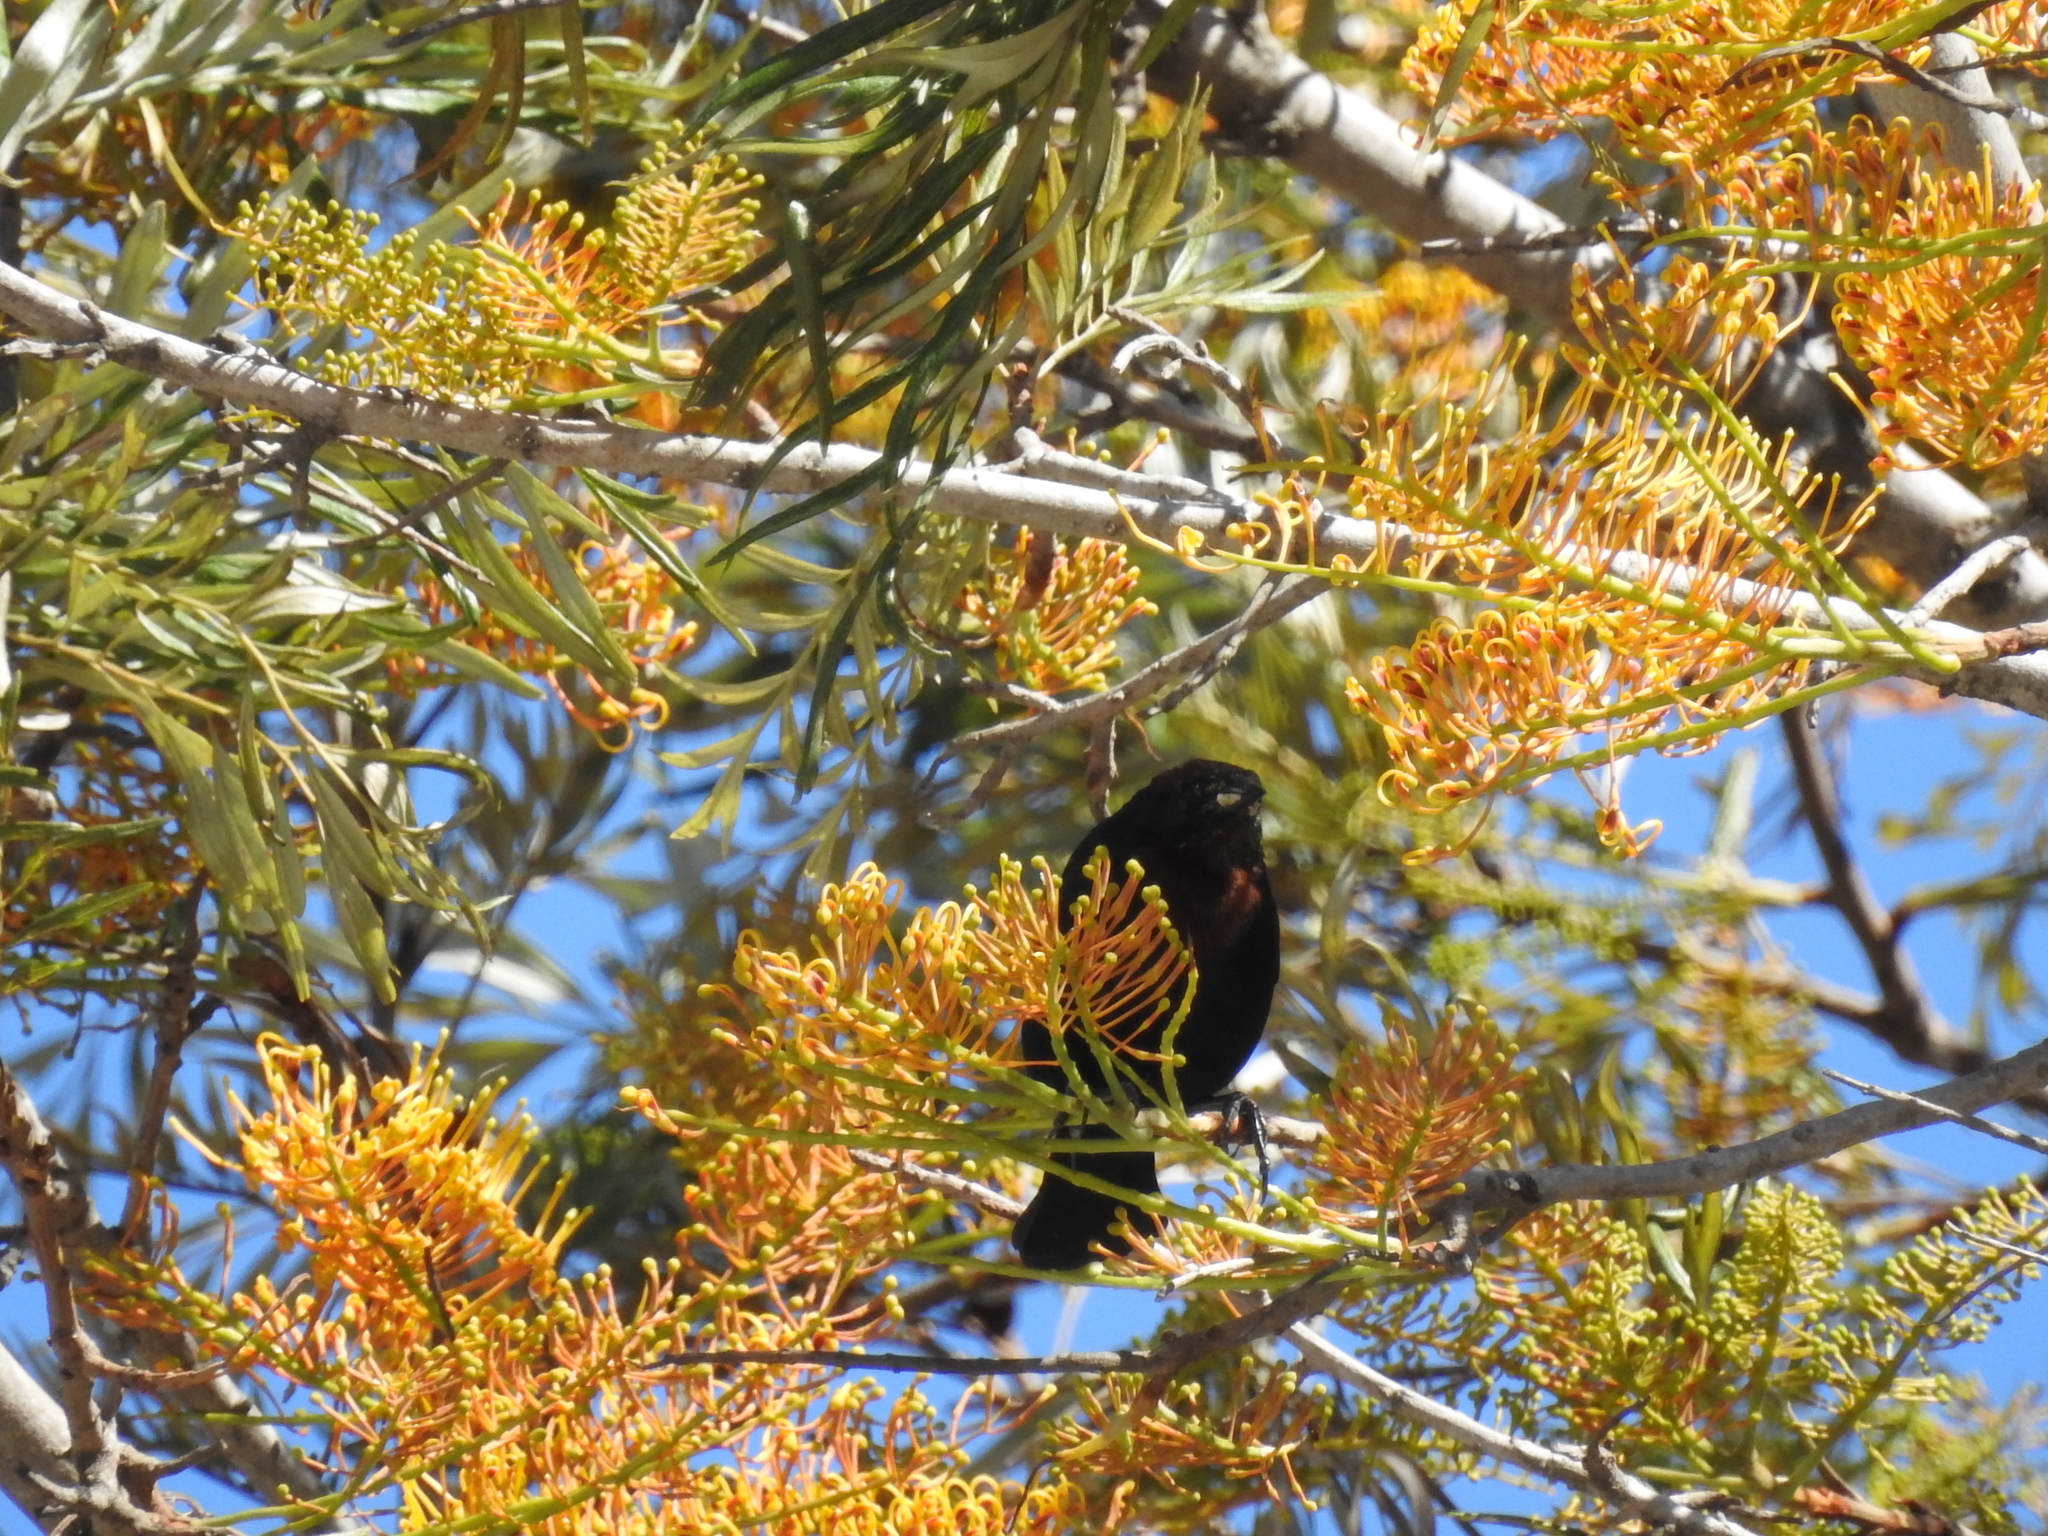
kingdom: Animalia
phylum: Chordata
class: Aves
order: Passeriformes
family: Icteridae
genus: Chrysomus
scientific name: Chrysomus ruficapillus
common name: Chestnut-capped blackbird
